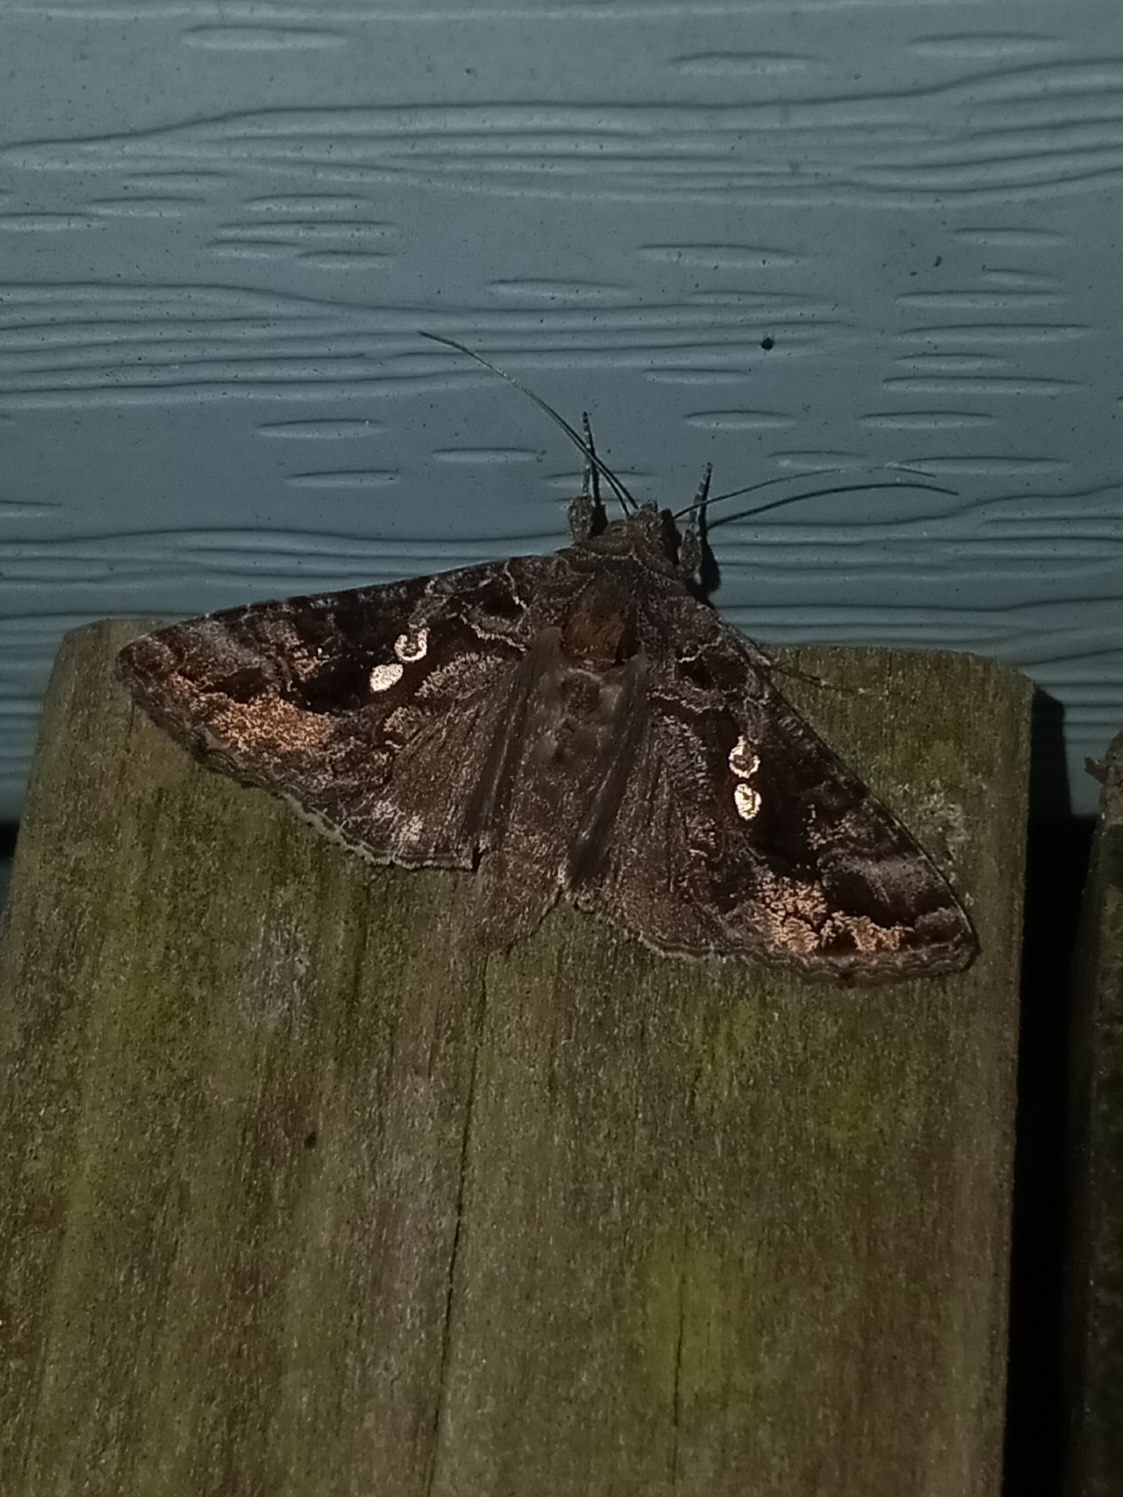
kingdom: Animalia
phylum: Arthropoda
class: Insecta
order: Lepidoptera
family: Noctuidae
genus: Chrysodeixis
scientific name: Chrysodeixis includens
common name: Cutworm moth
